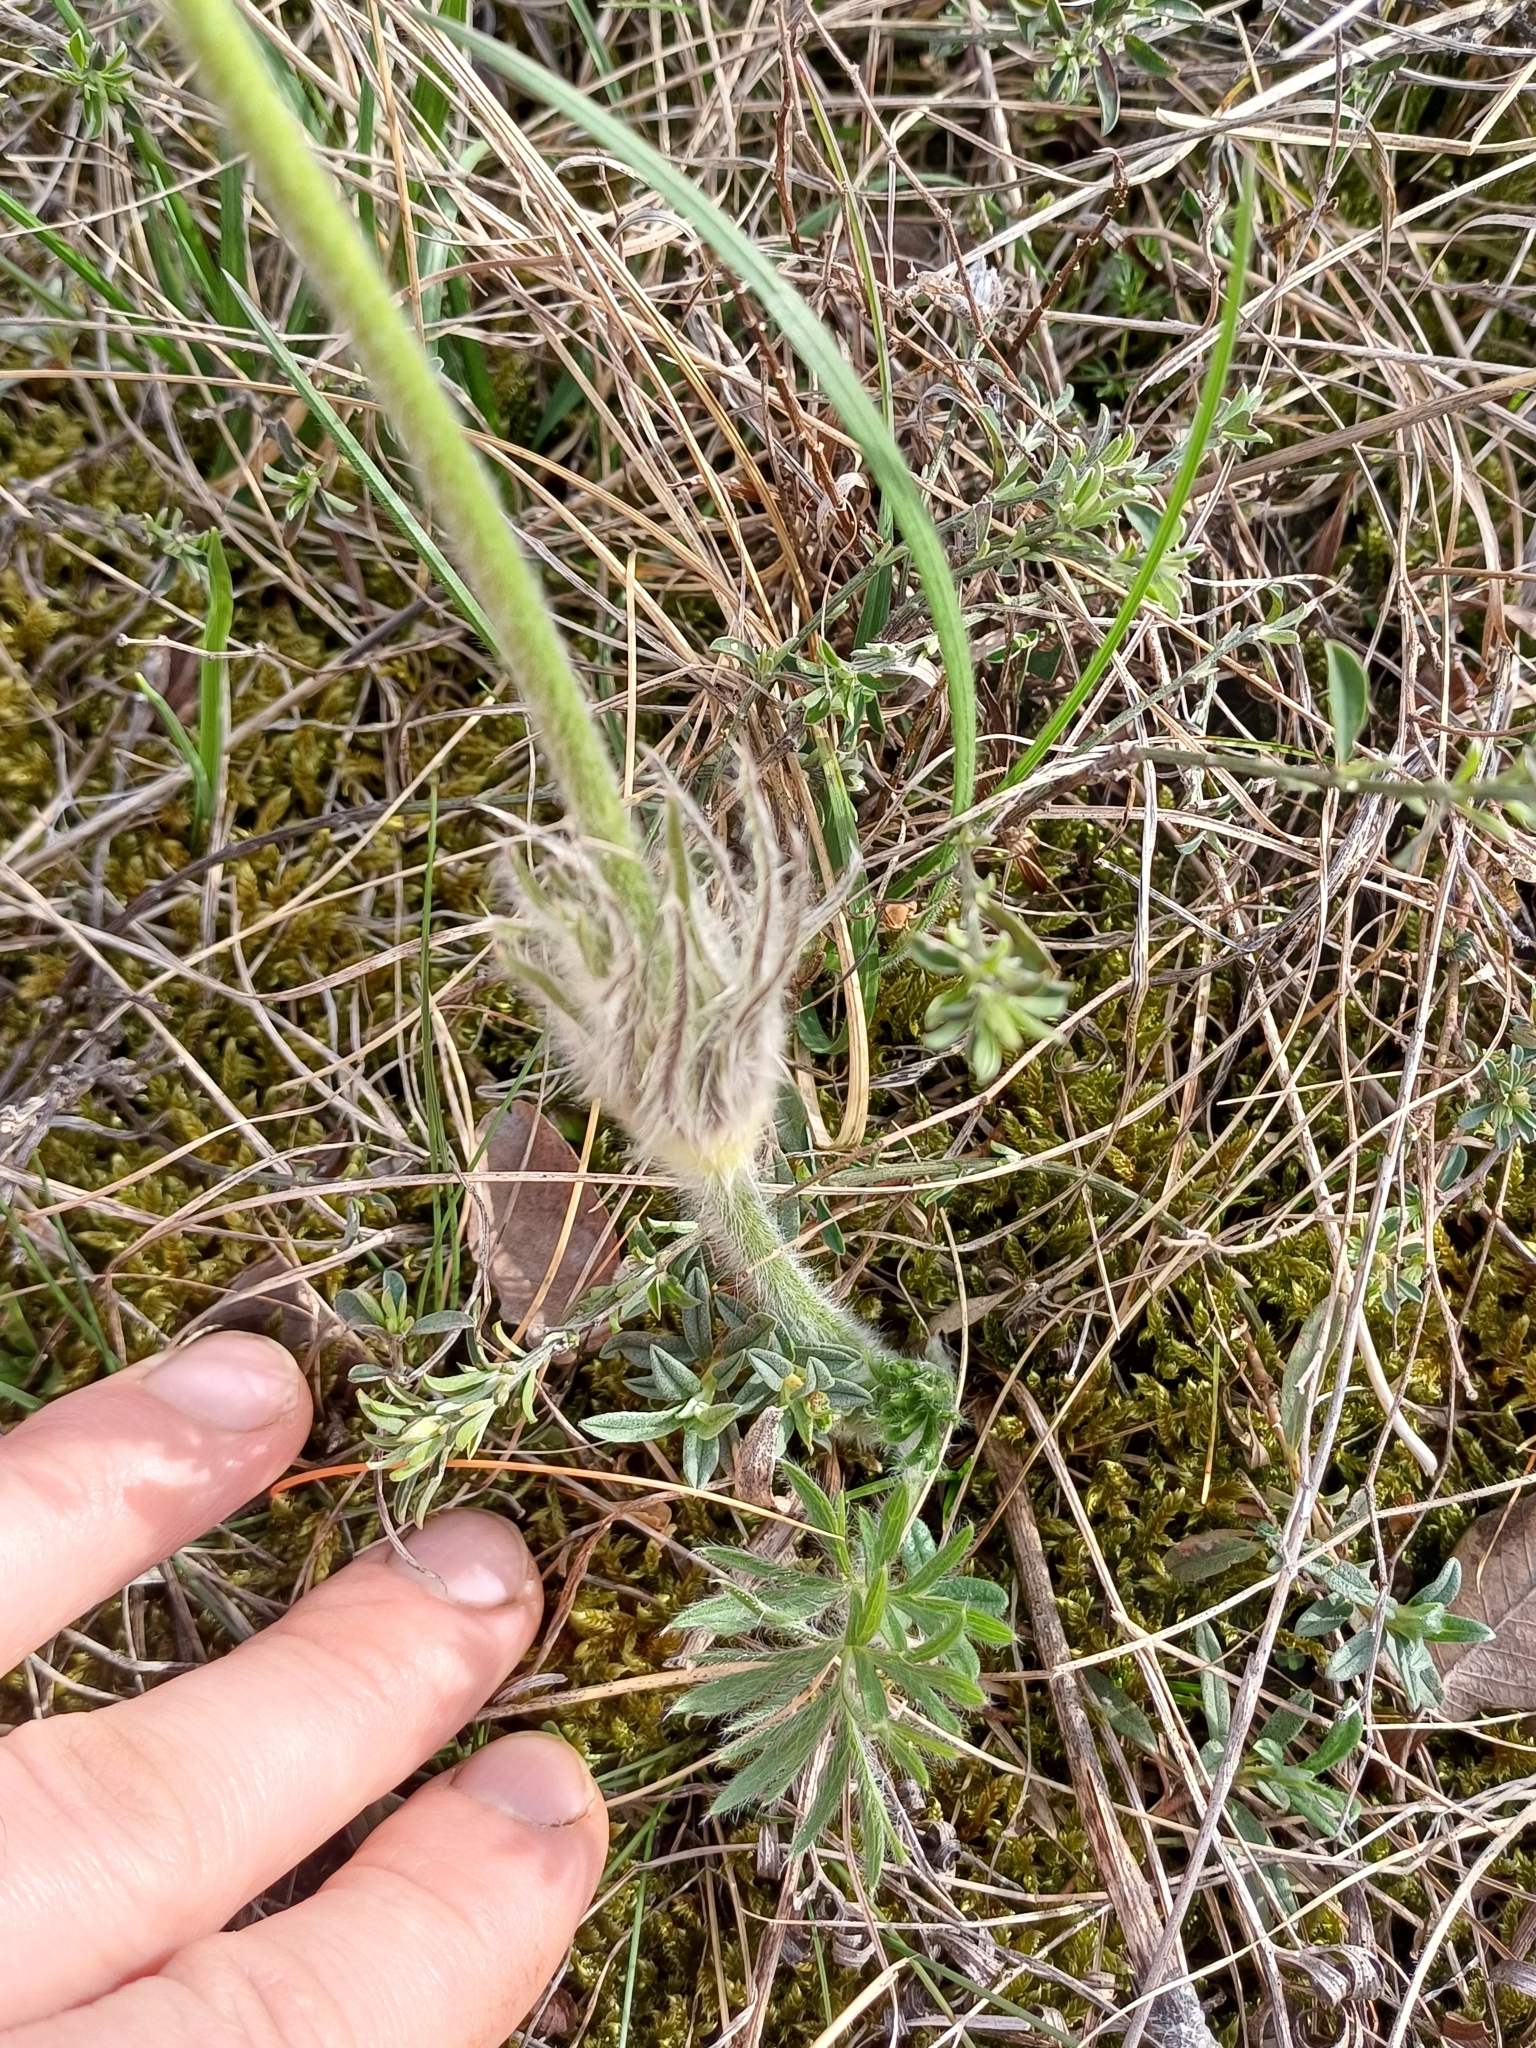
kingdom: Plantae
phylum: Tracheophyta
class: Magnoliopsida
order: Ranunculales
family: Ranunculaceae
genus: Pulsatilla
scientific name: Pulsatilla grandis
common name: Greater pasque flower
